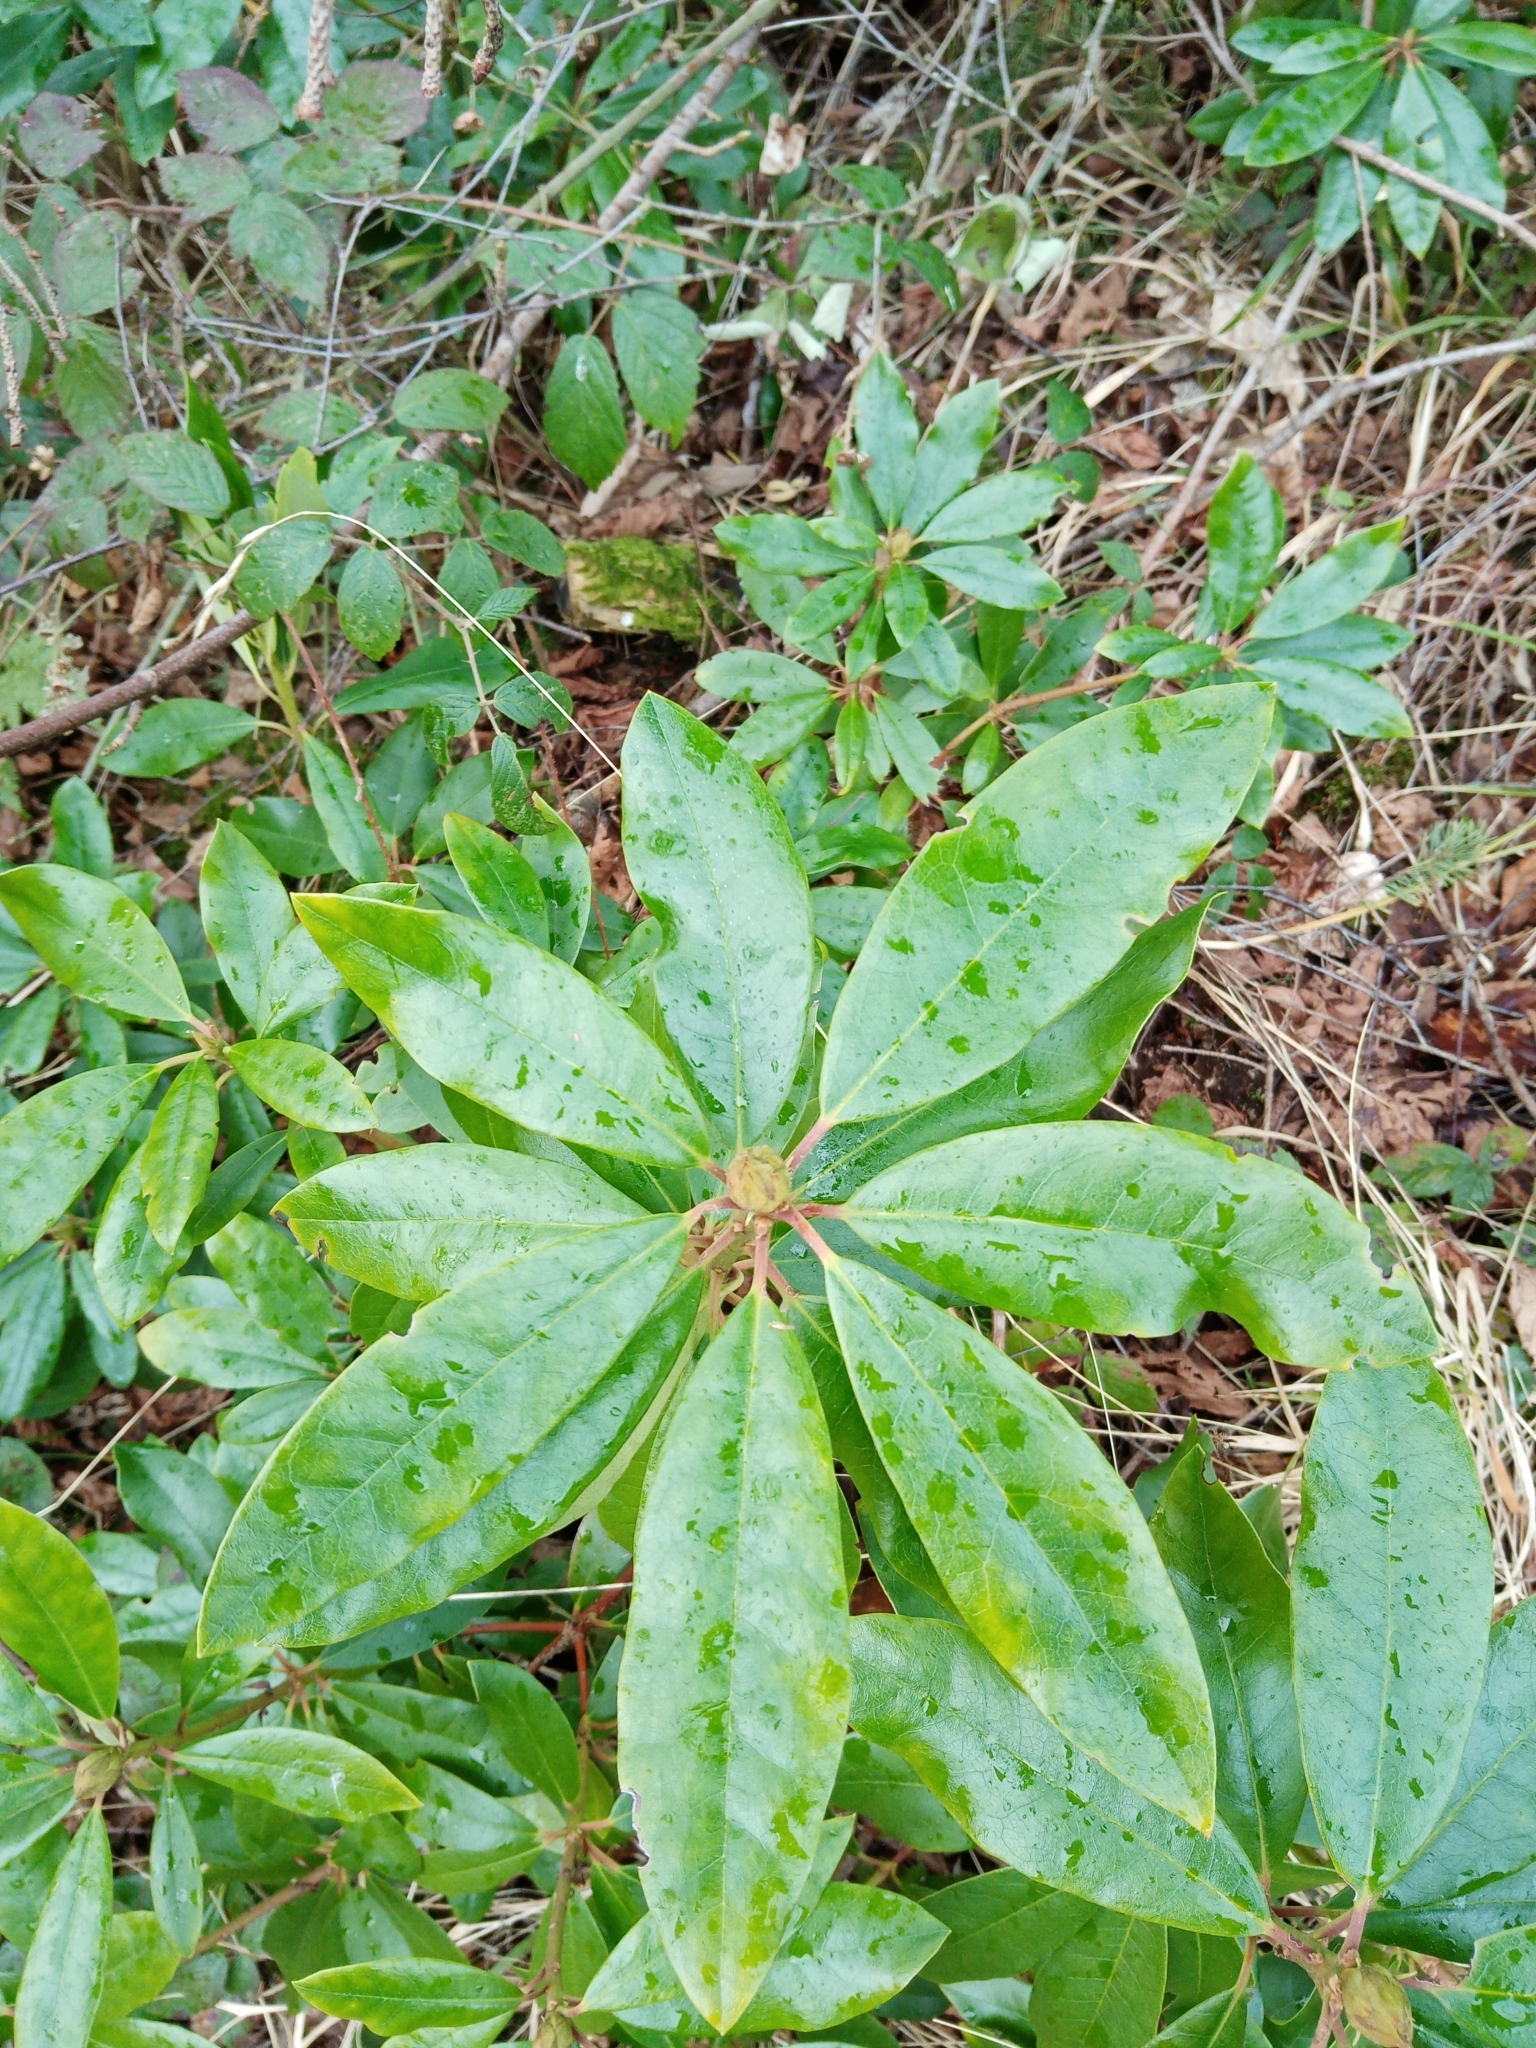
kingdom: Plantae
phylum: Tracheophyta
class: Magnoliopsida
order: Ericales
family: Ericaceae
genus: Rhododendron
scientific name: Rhododendron ponticum
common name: Rhododendron
